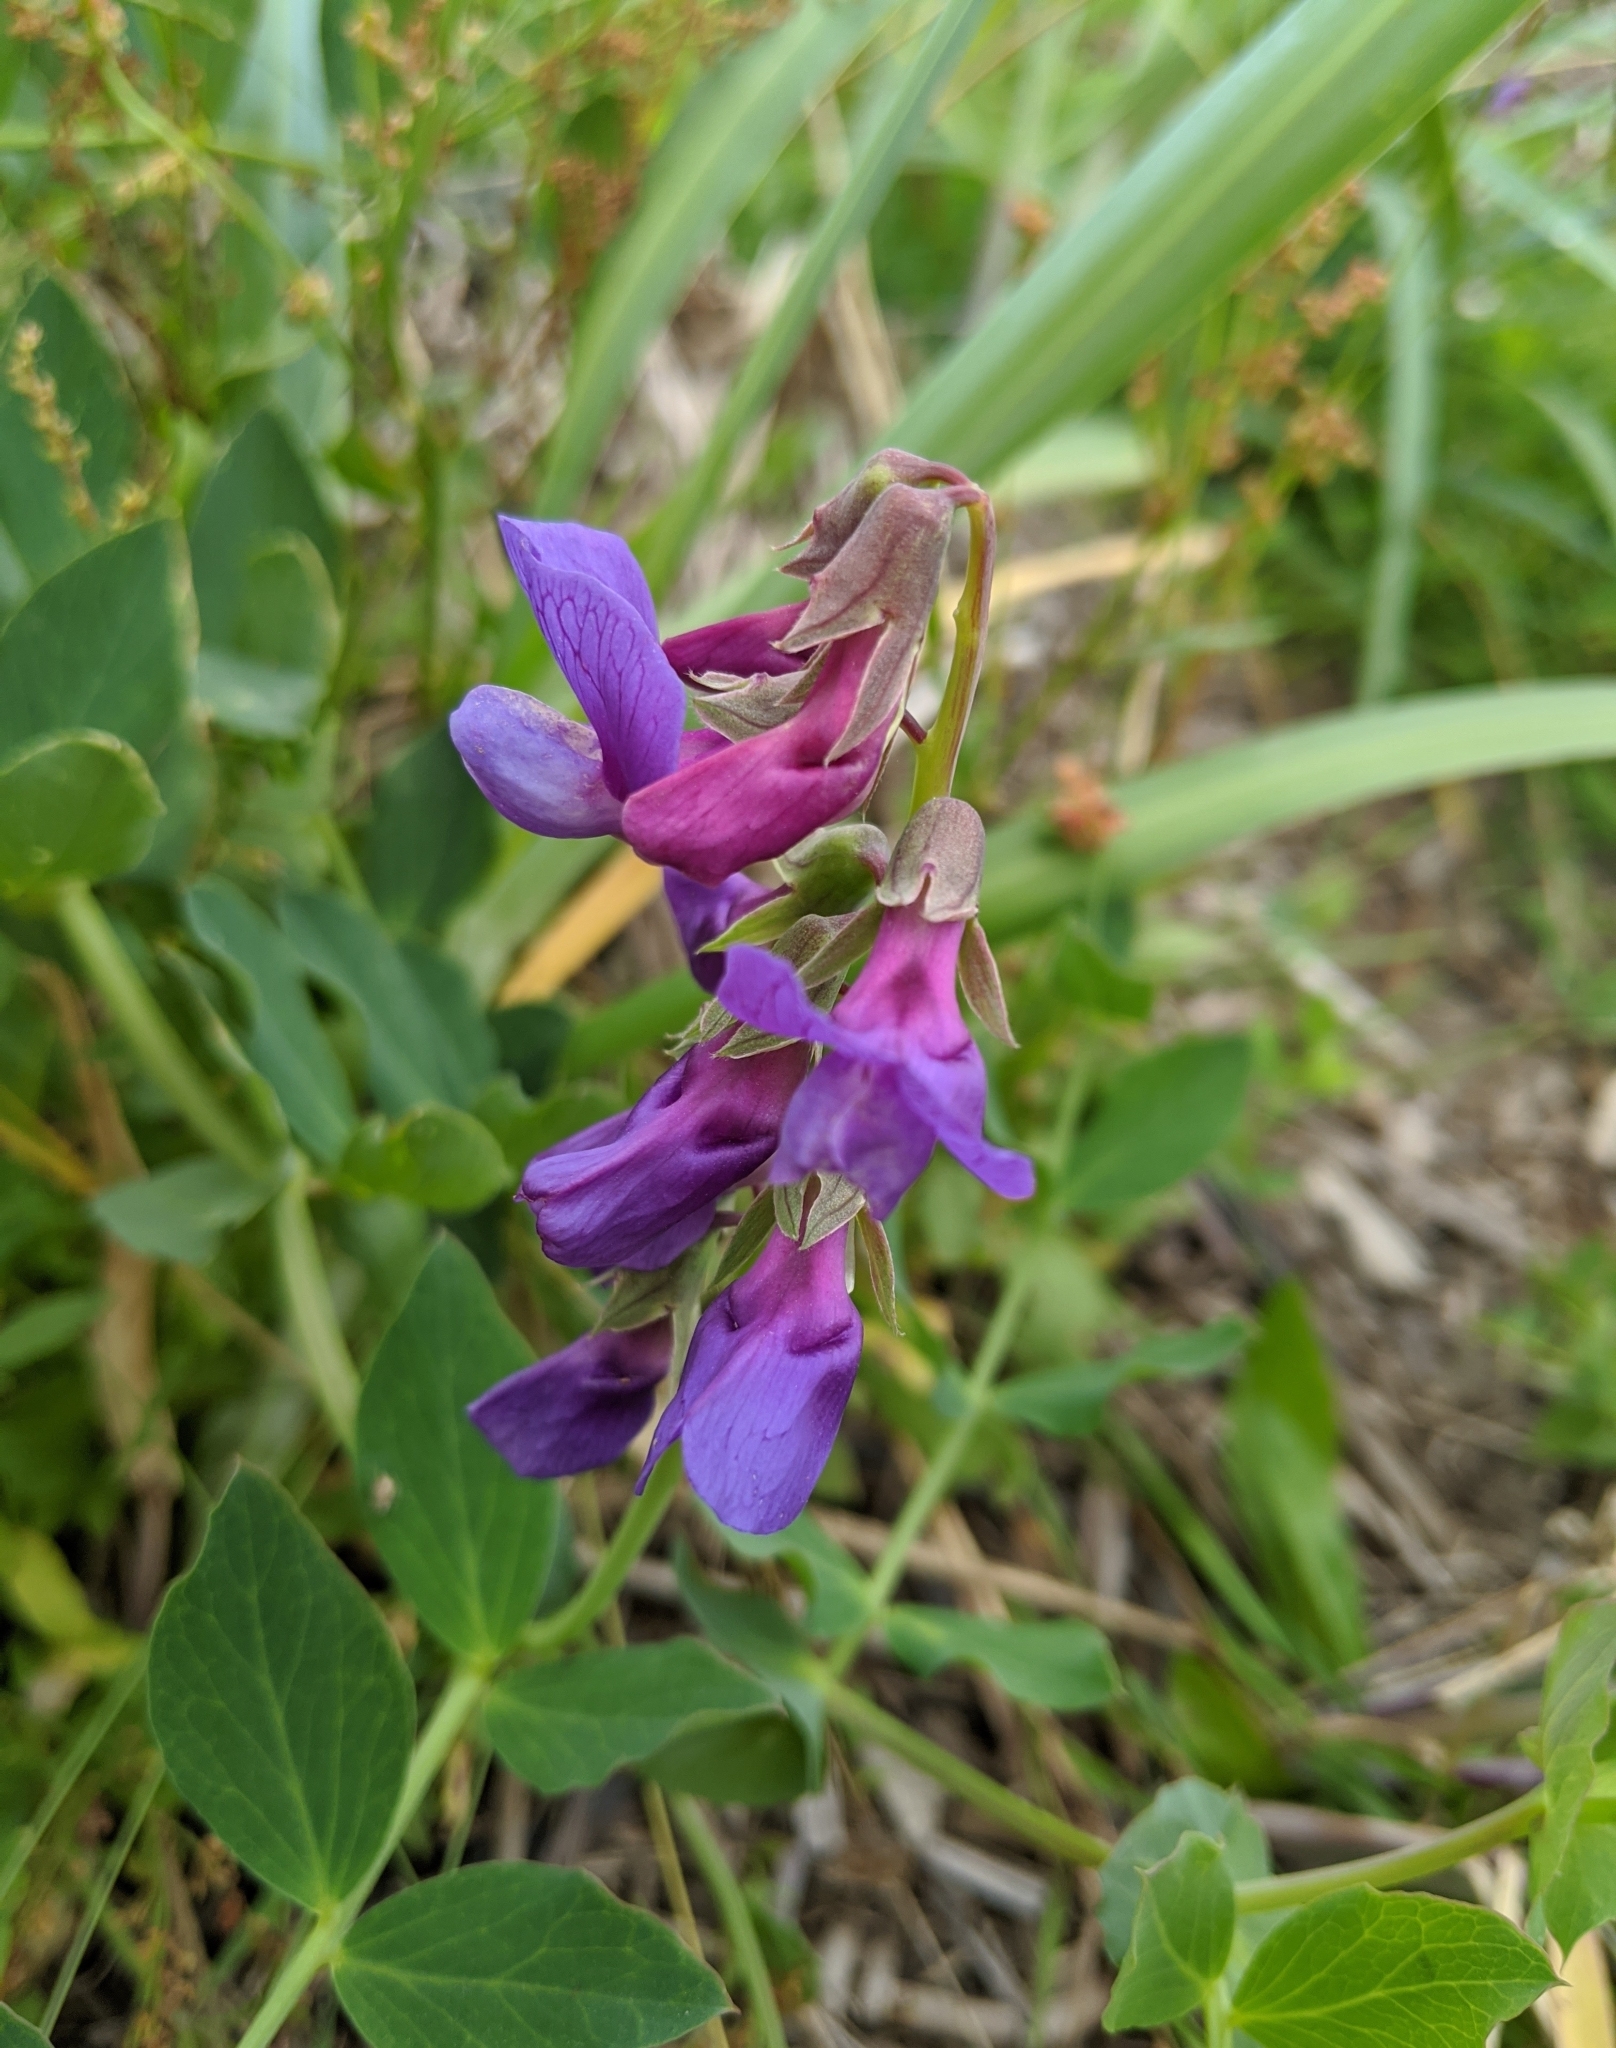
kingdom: Plantae
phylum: Tracheophyta
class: Magnoliopsida
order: Fabales
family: Fabaceae
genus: Lathyrus
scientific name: Lathyrus japonicus
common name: Sea pea
